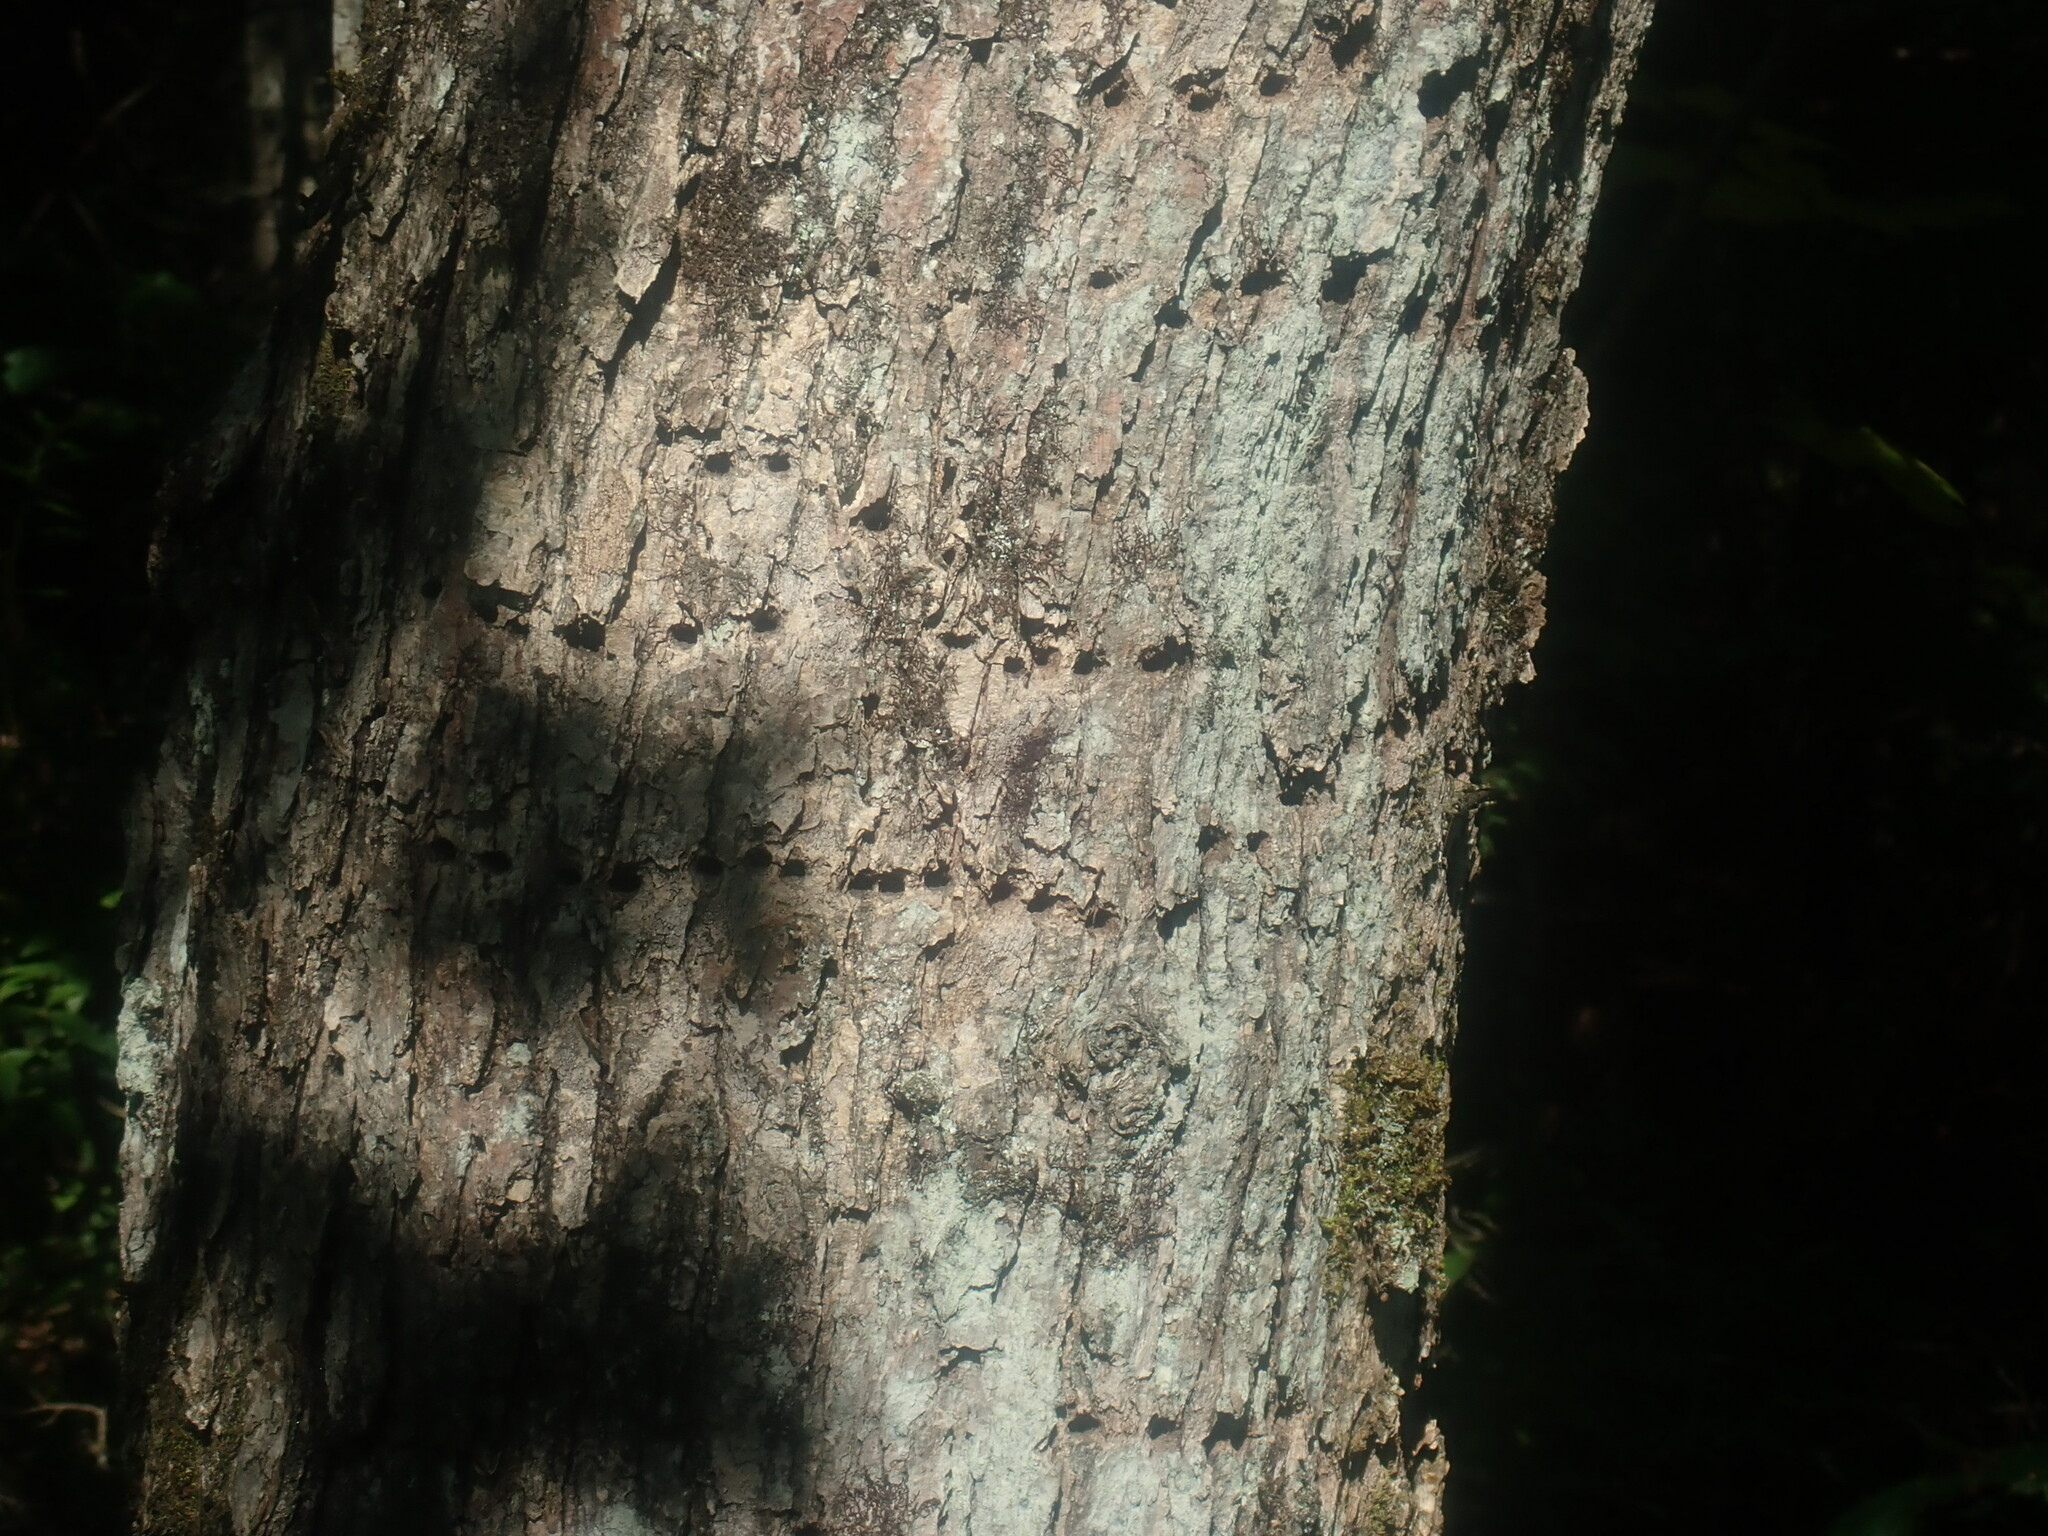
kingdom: Animalia
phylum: Chordata
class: Aves
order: Piciformes
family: Picidae
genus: Sphyrapicus
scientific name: Sphyrapicus varius
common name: Yellow-bellied sapsucker
